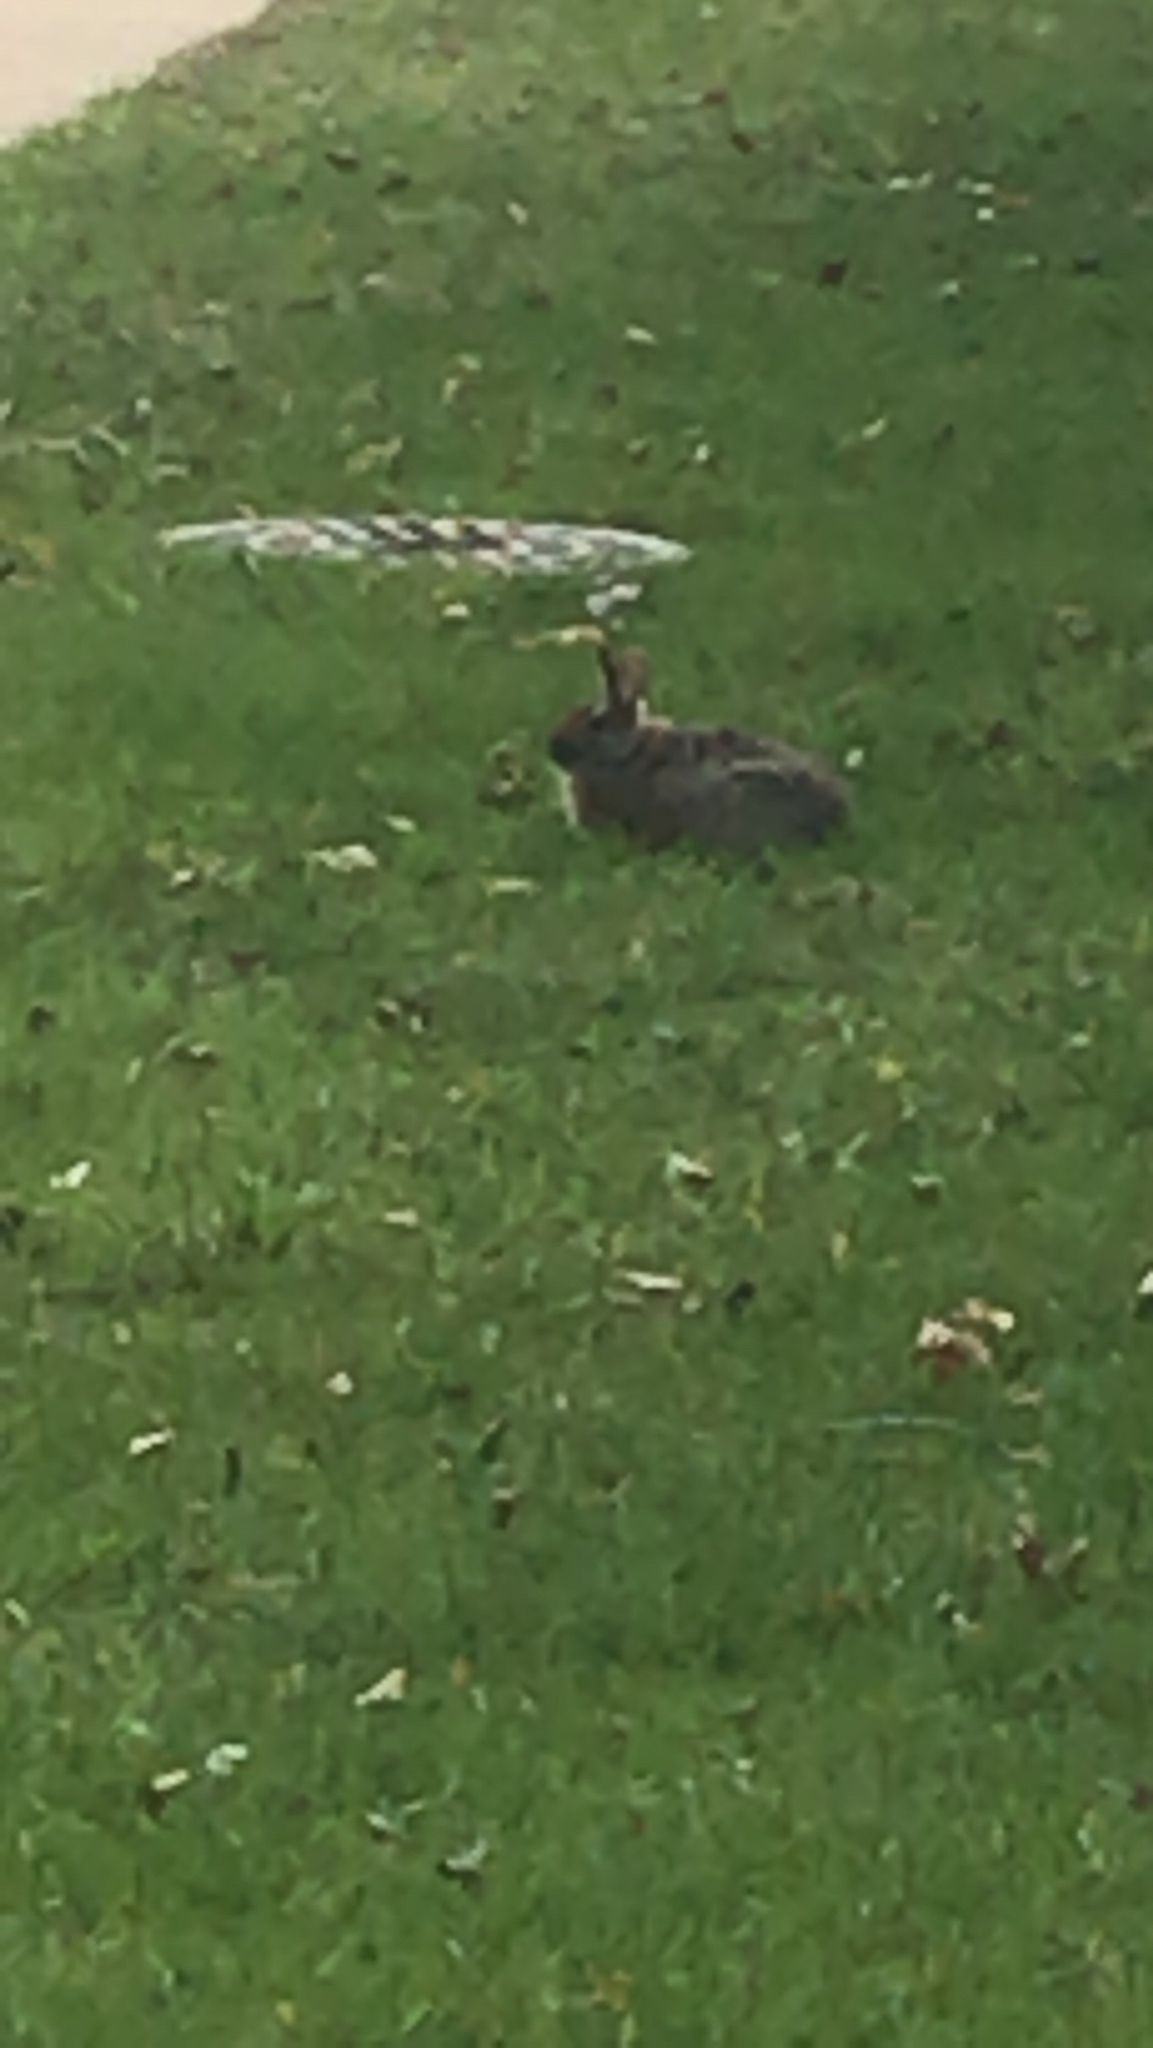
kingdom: Animalia
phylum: Chordata
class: Mammalia
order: Lagomorpha
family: Leporidae
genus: Sylvilagus
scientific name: Sylvilagus floridanus
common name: Eastern cottontail
